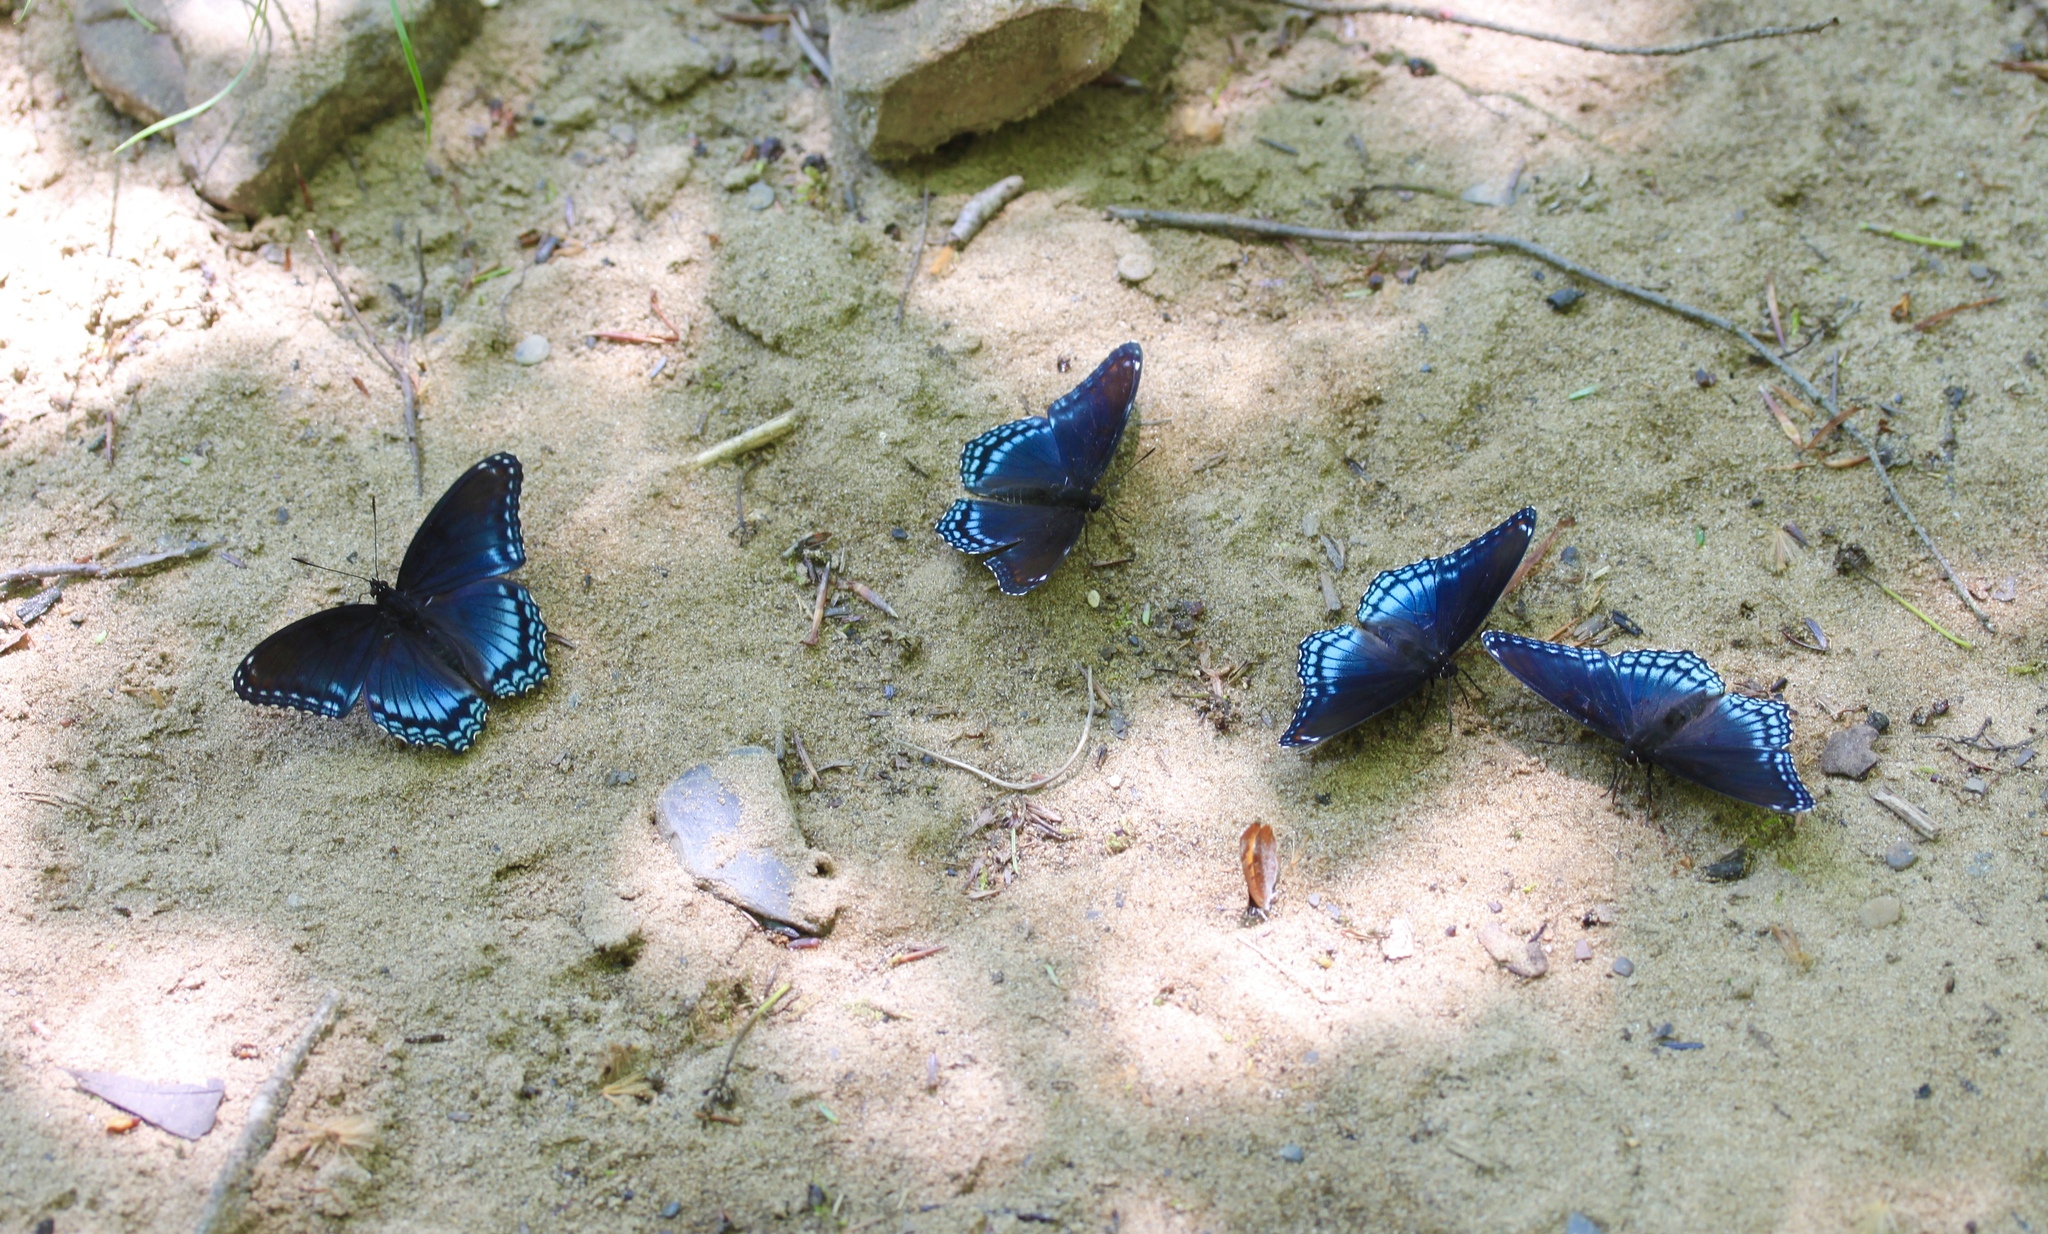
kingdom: Animalia
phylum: Arthropoda
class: Insecta
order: Lepidoptera
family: Nymphalidae
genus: Limenitis
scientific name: Limenitis arthemis
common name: Red-spotted admiral
